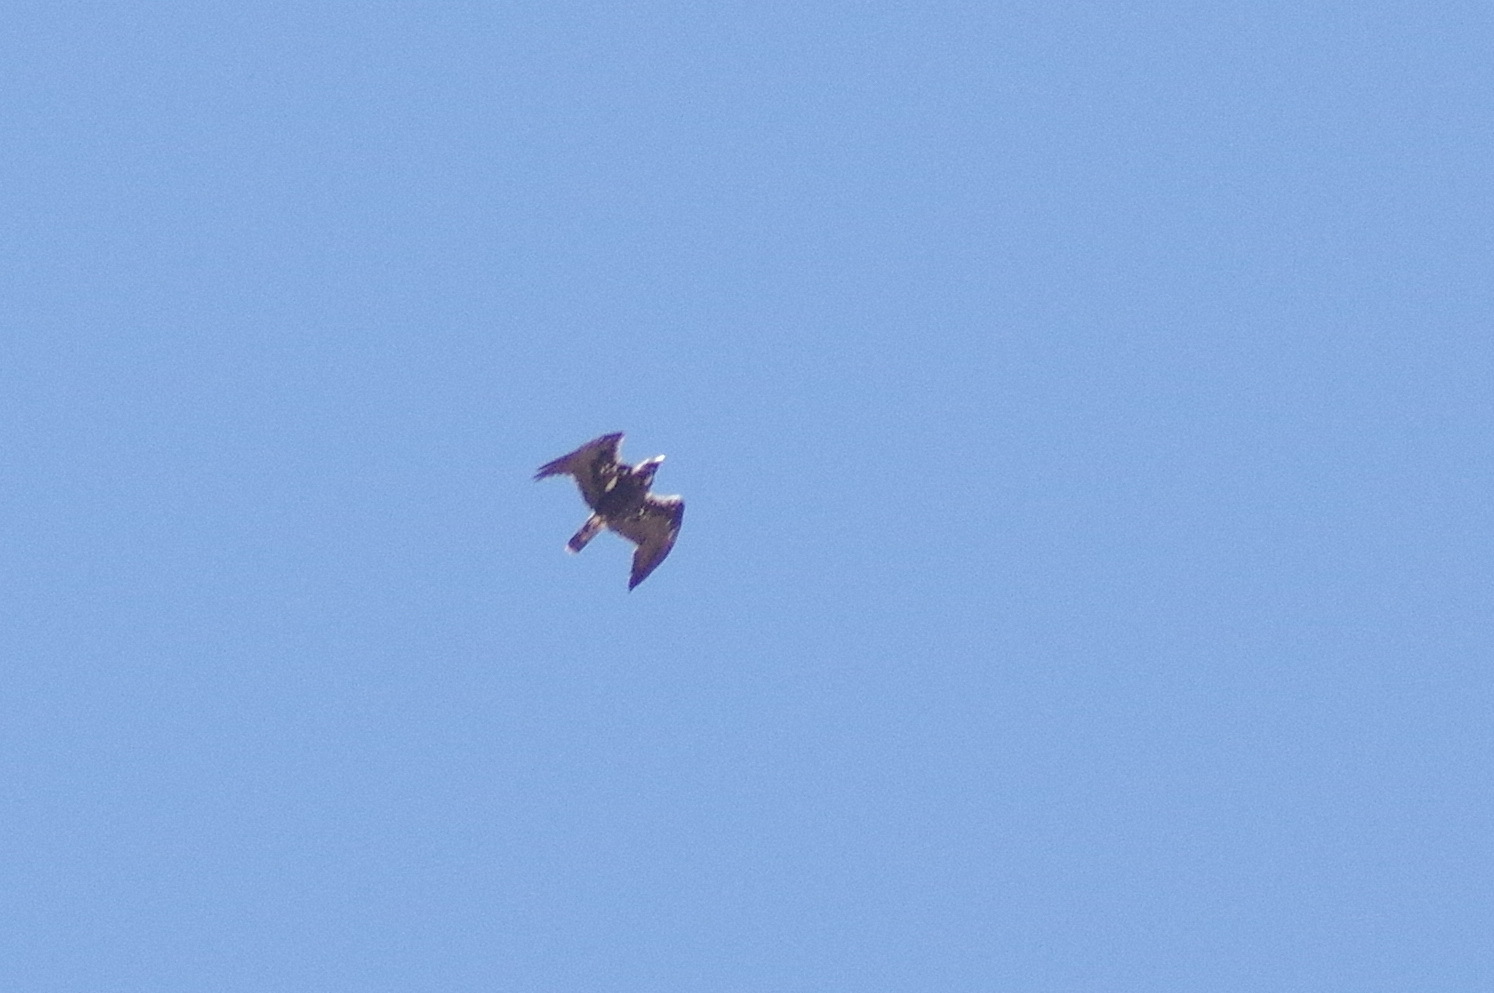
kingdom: Animalia
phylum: Chordata
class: Aves
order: Accipitriformes
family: Accipitridae
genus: Aquila
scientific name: Aquila adalberti
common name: Spanish imperial eagle
